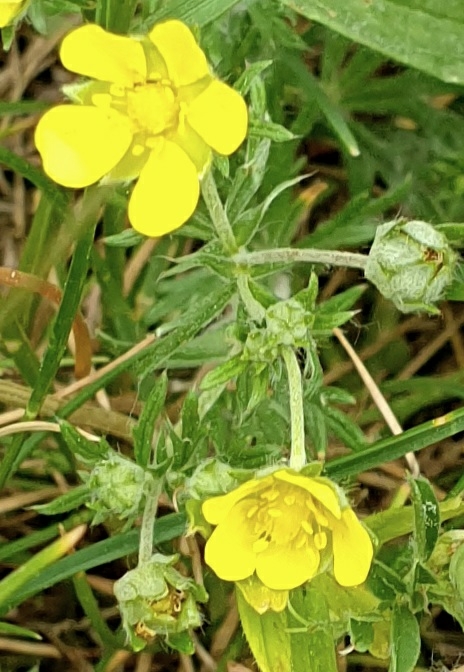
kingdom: Plantae
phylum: Tracheophyta
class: Magnoliopsida
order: Rosales
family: Rosaceae
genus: Potentilla
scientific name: Potentilla argentea
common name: Hoary cinquefoil
